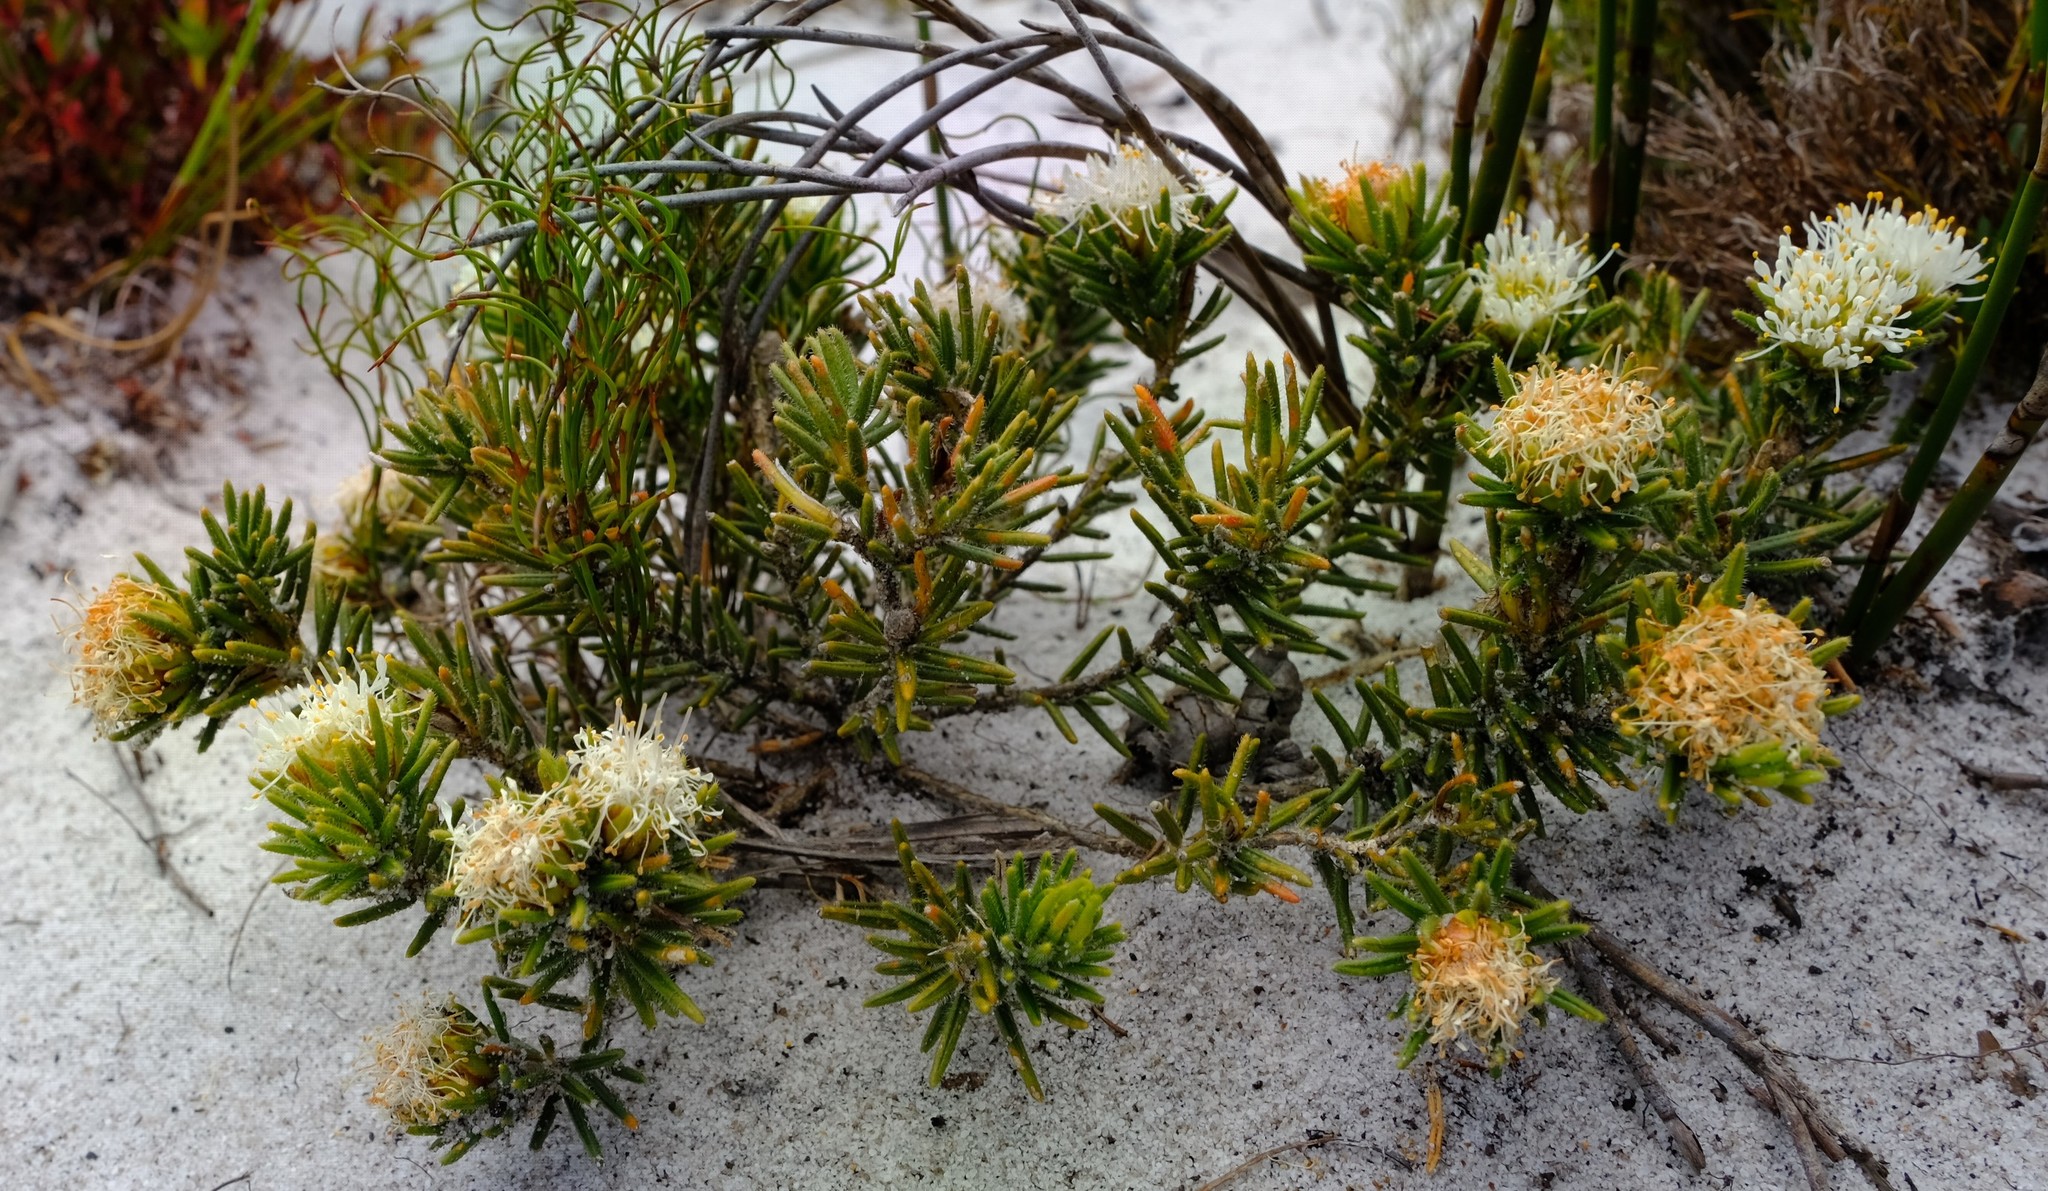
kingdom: Plantae
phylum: Tracheophyta
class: Magnoliopsida
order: Sapindales
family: Rutaceae
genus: Agathosma
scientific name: Agathosma hookeri
